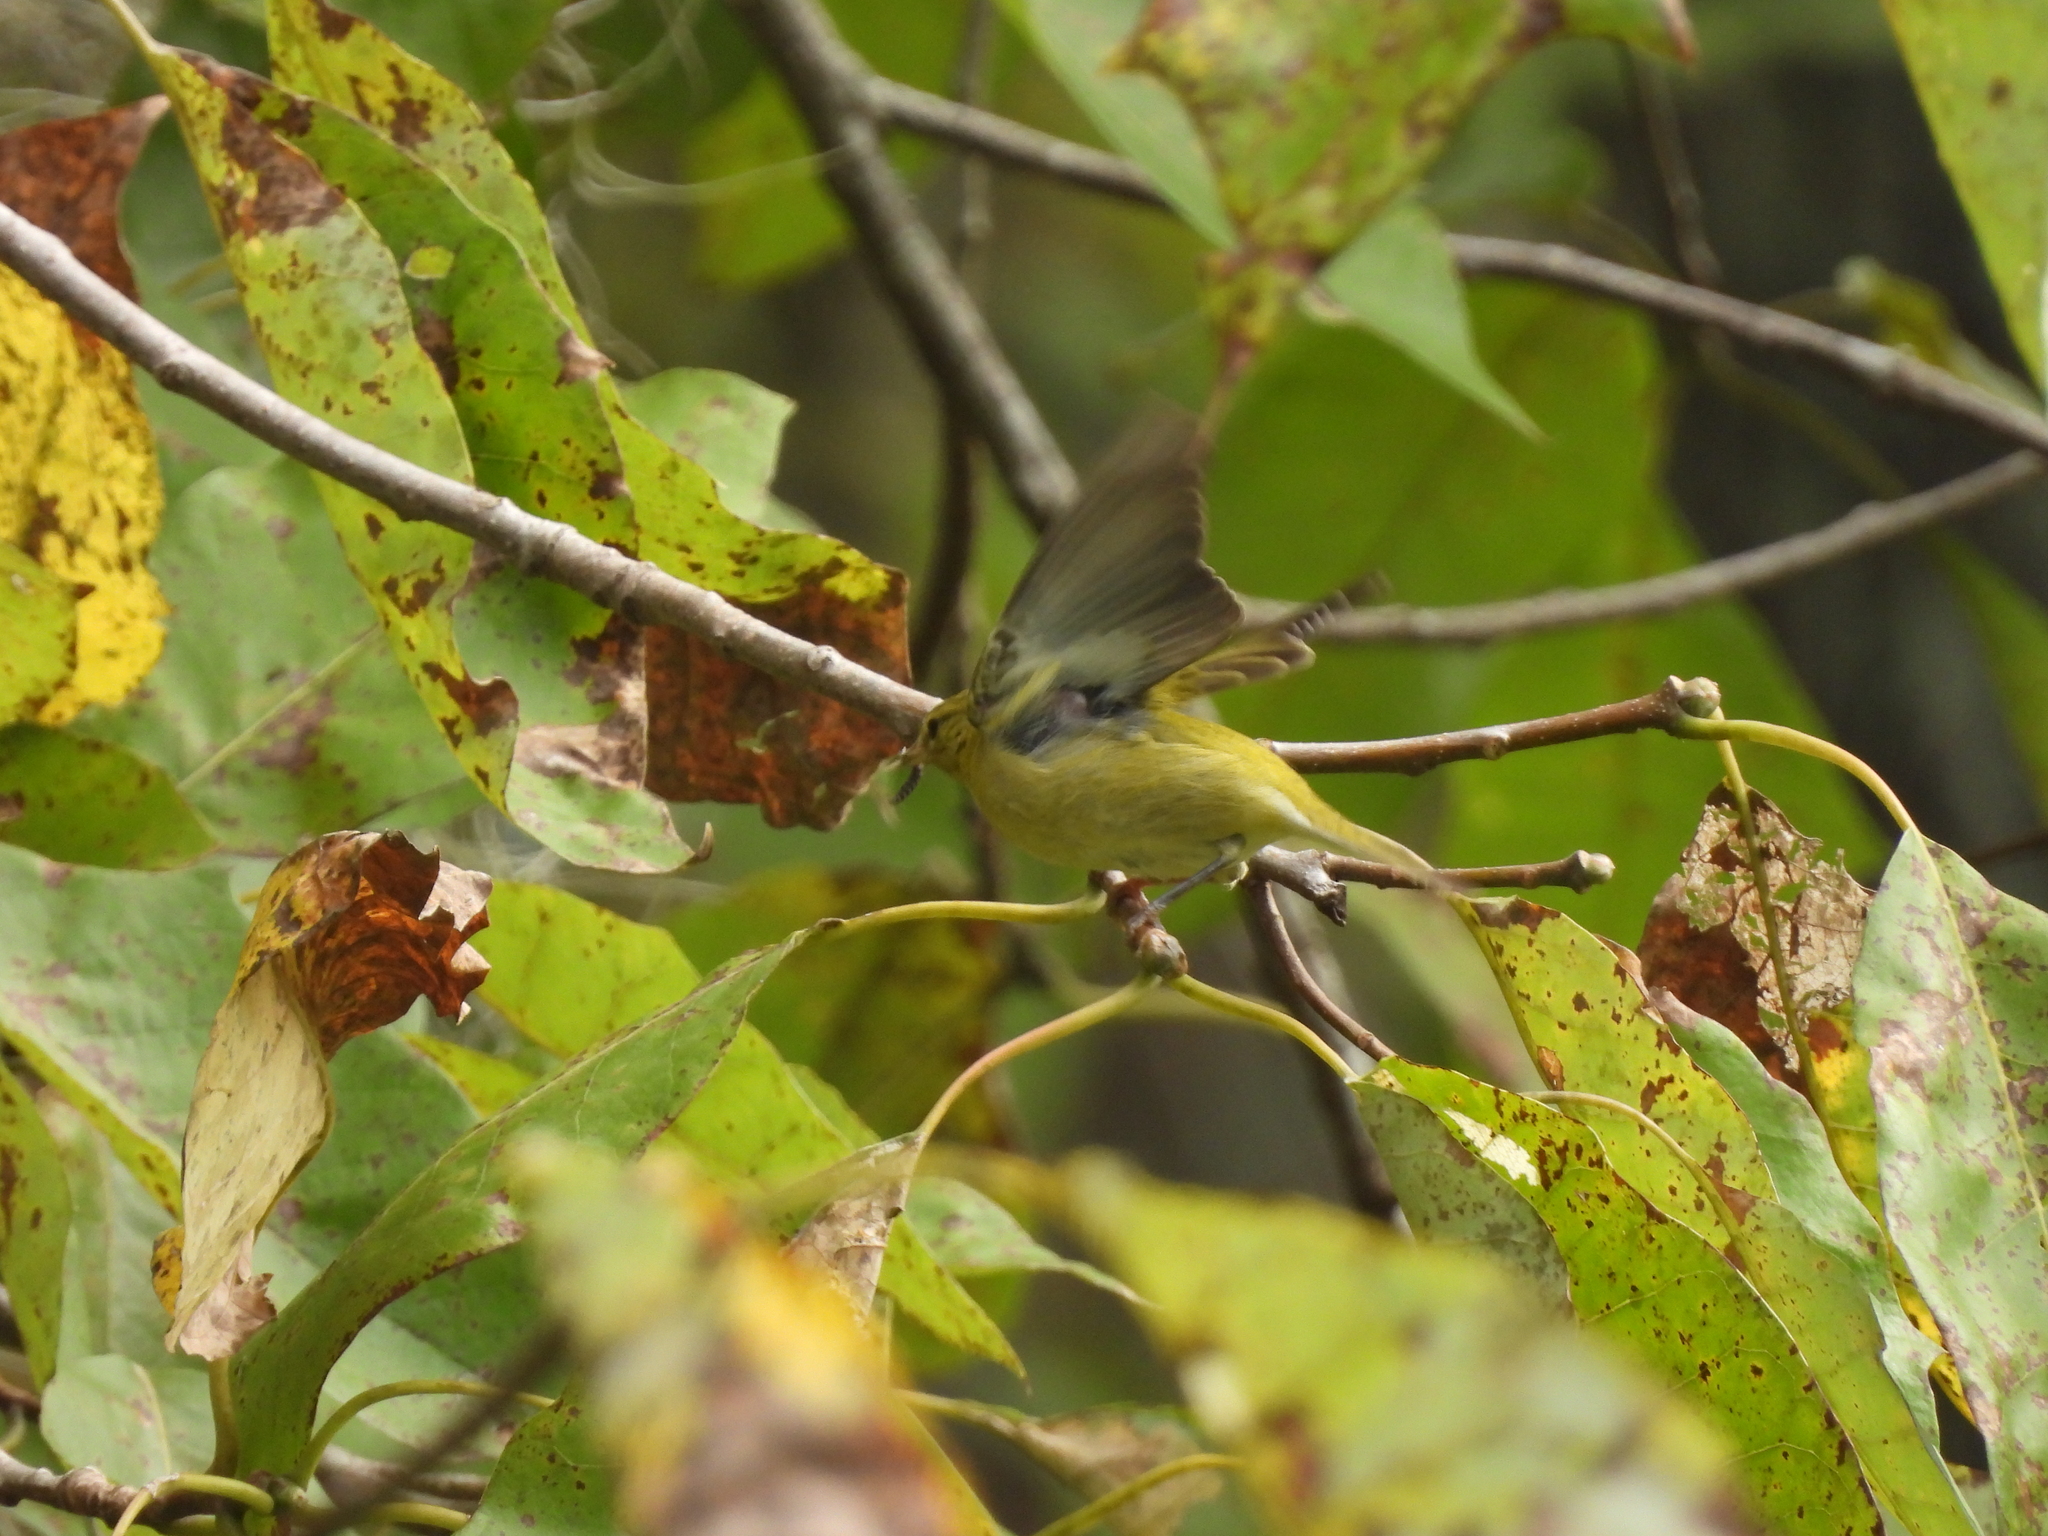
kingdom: Animalia
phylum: Chordata
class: Aves
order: Passeriformes
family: Parulidae
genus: Leiothlypis
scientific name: Leiothlypis peregrina
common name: Tennessee warbler
